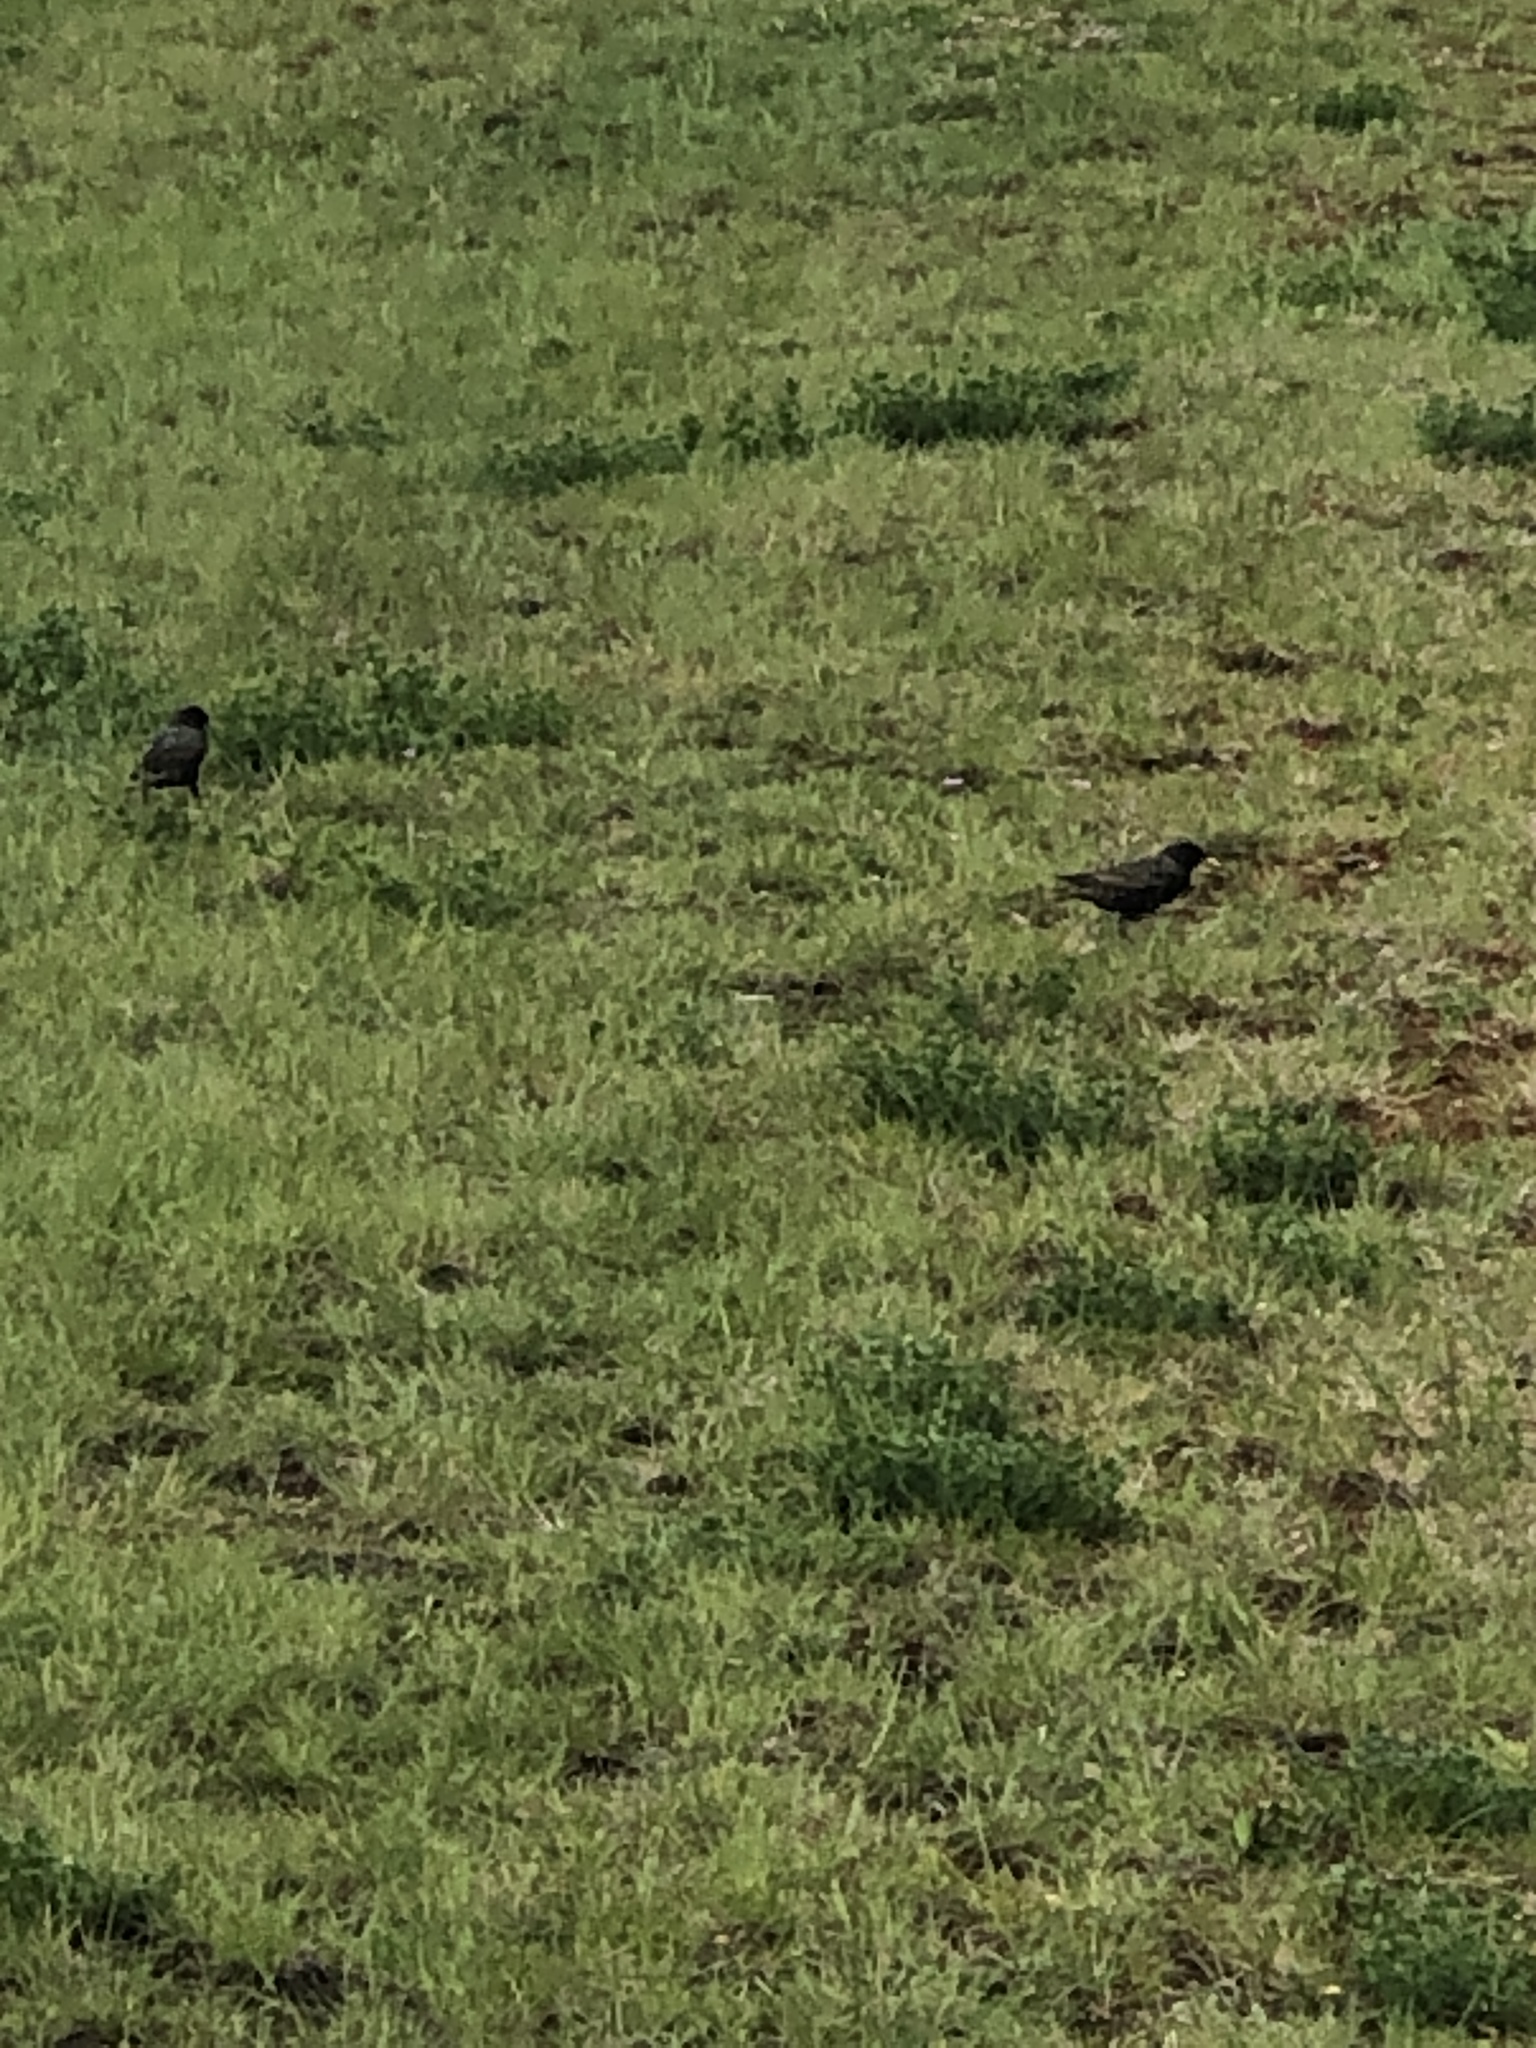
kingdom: Animalia
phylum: Chordata
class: Aves
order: Passeriformes
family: Sturnidae
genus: Sturnus
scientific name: Sturnus vulgaris
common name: Common starling
